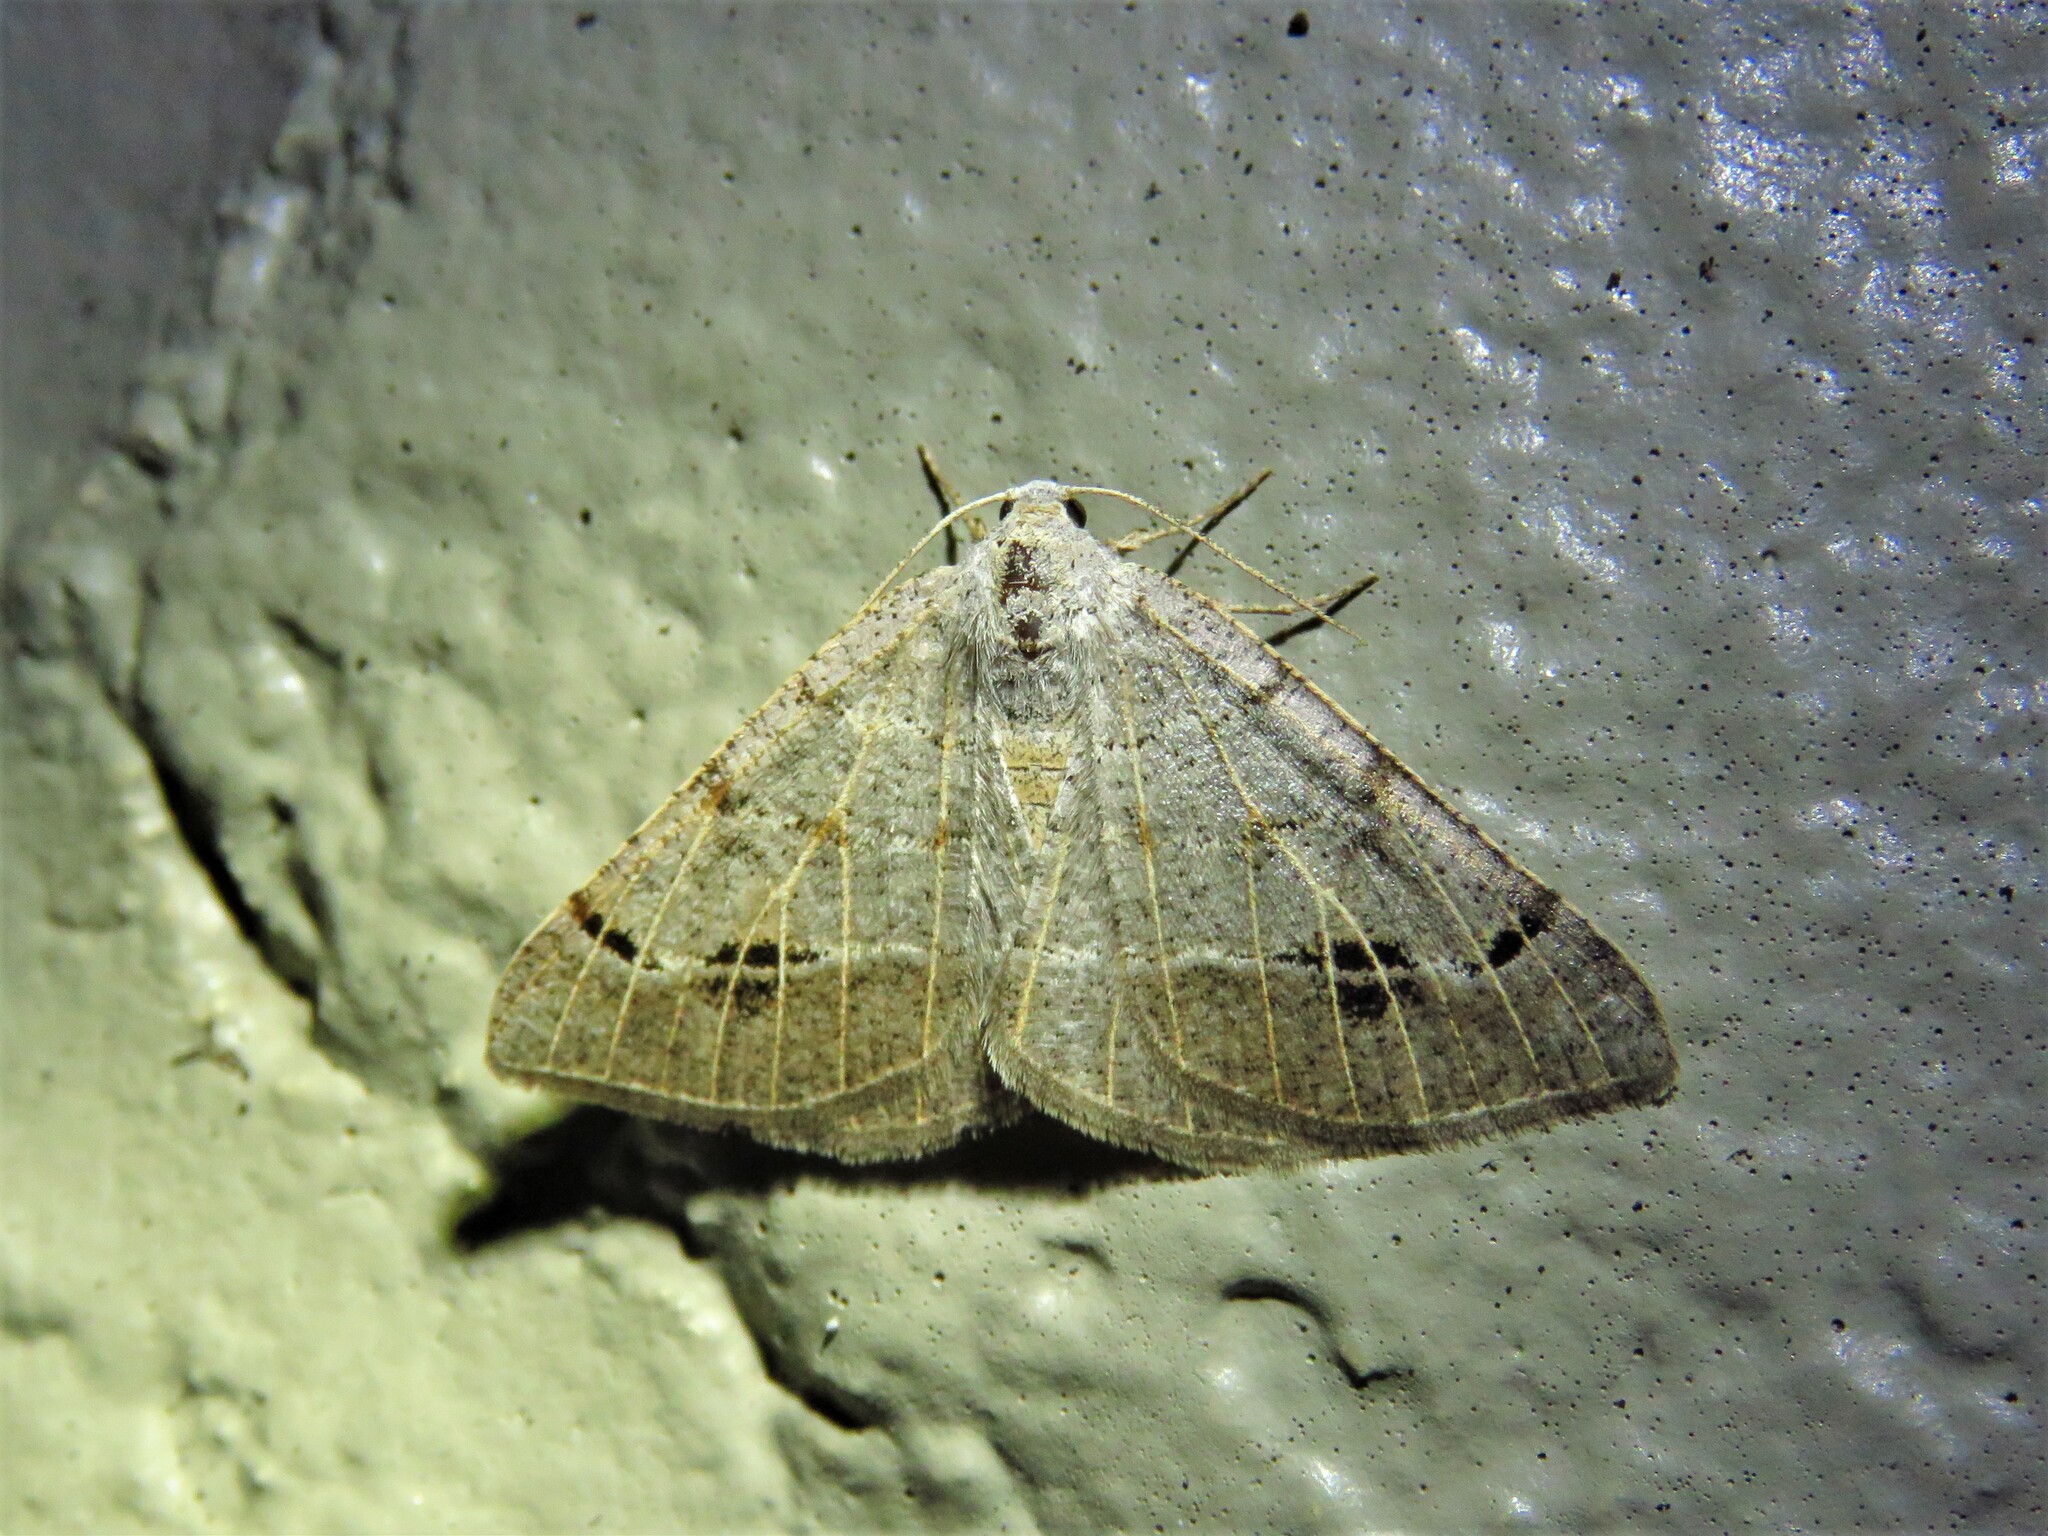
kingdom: Animalia
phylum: Arthropoda
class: Insecta
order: Lepidoptera
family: Geometridae
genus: Isturgia
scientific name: Isturgia dislocaria
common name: Pale-viened enconista
